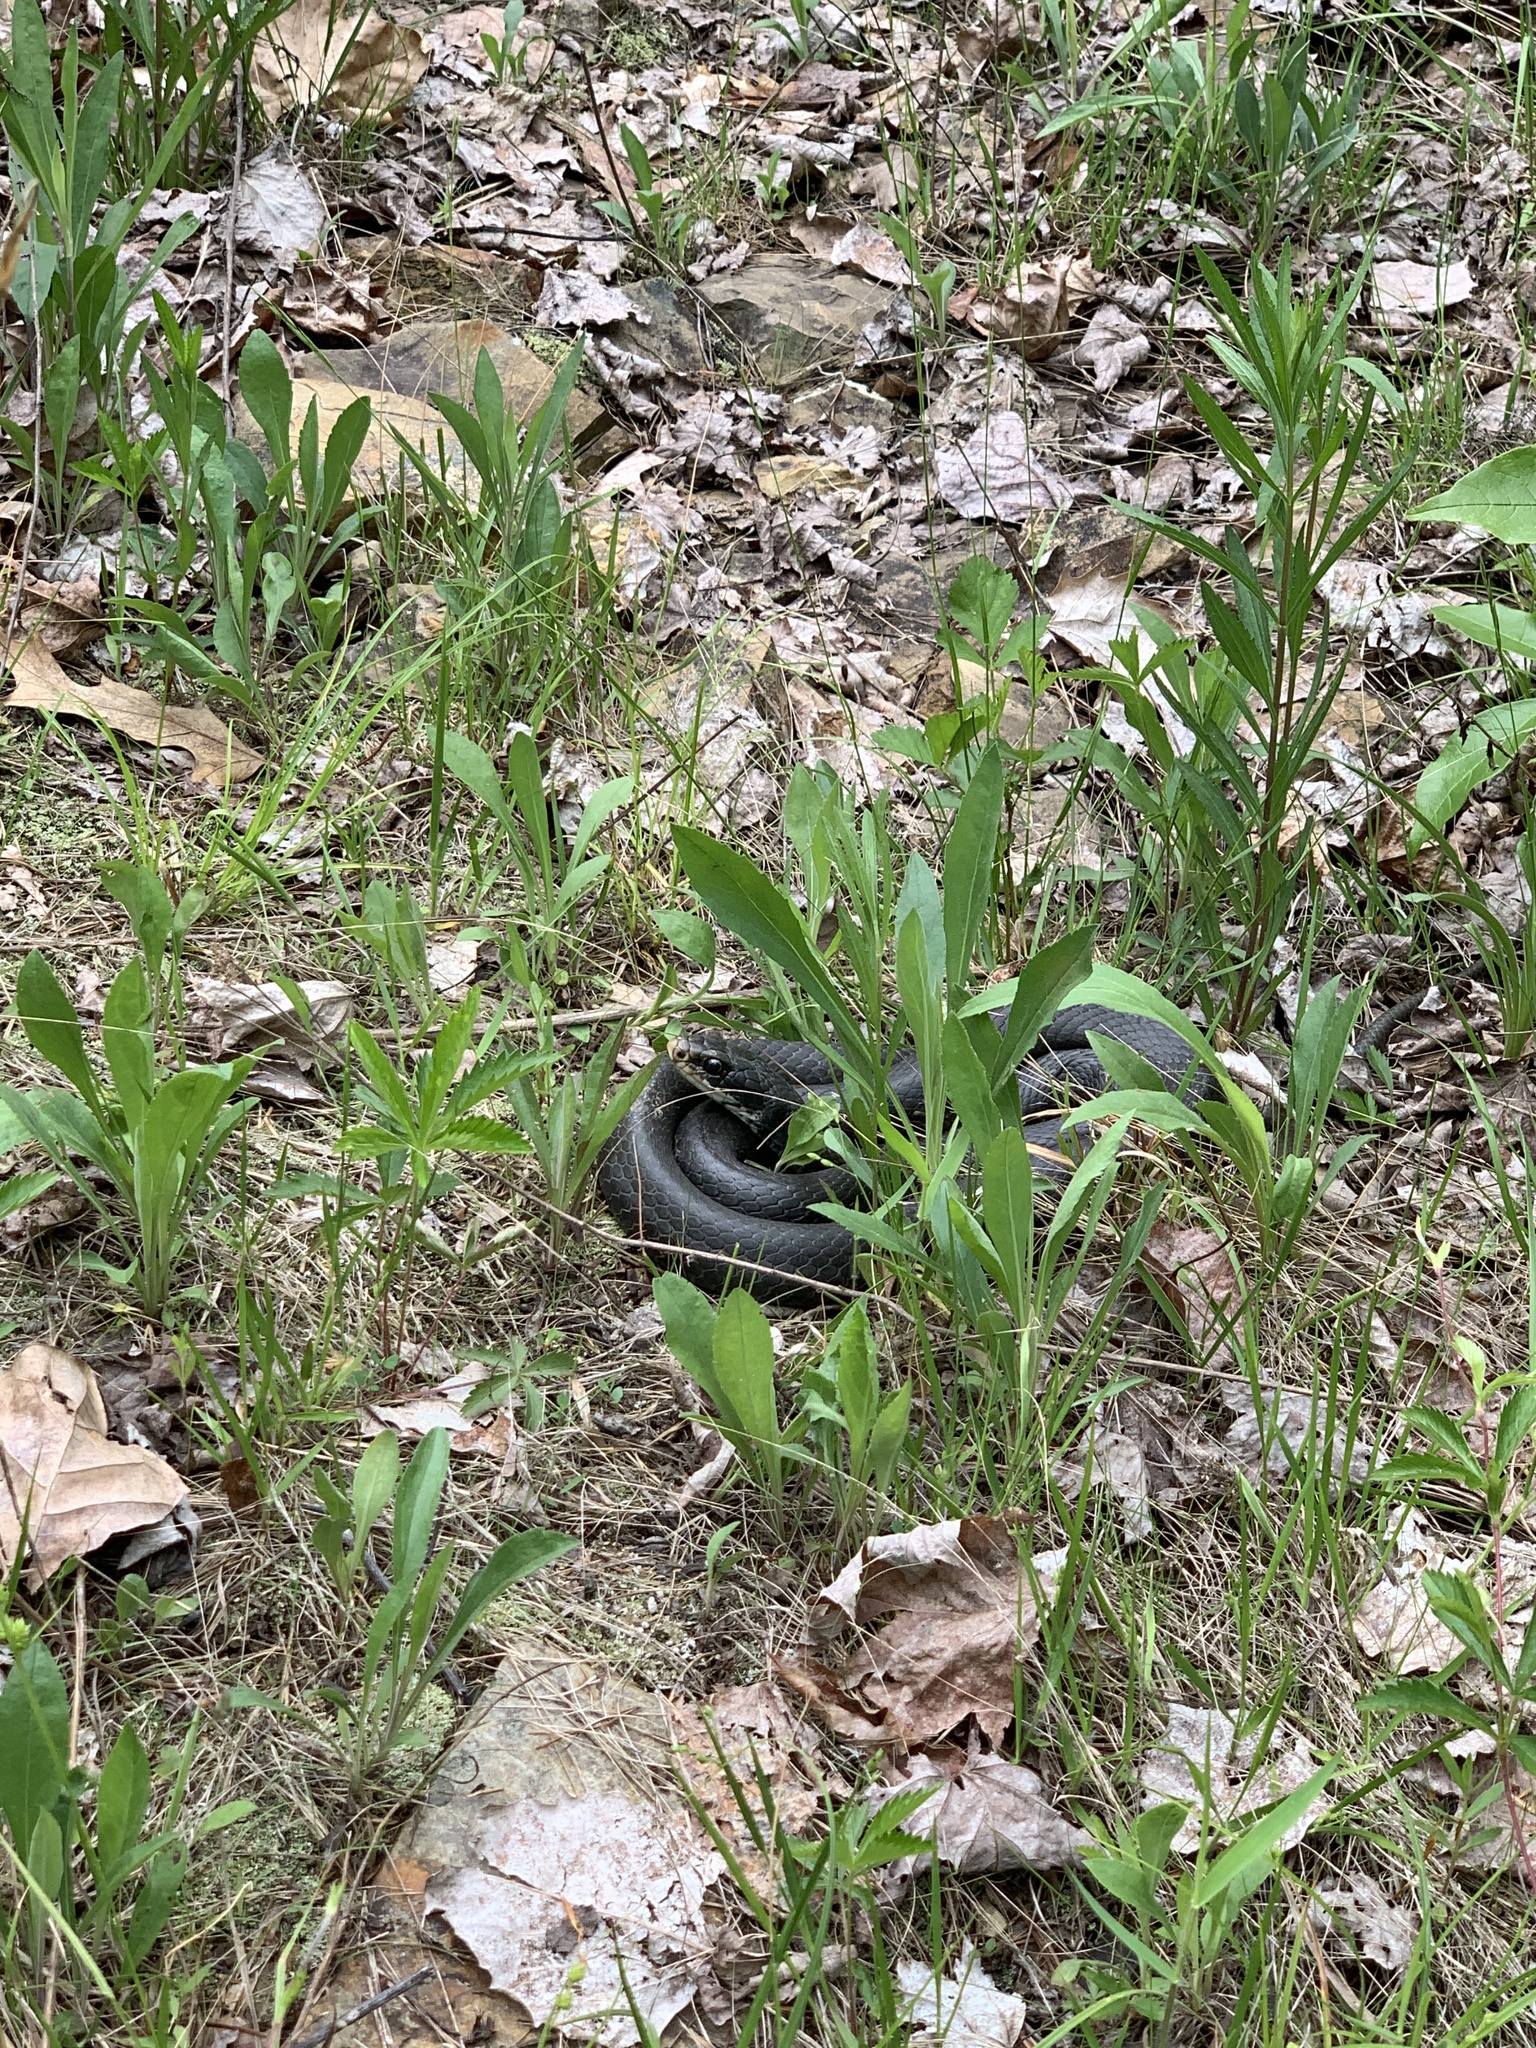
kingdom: Animalia
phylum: Chordata
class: Squamata
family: Colubridae
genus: Coluber
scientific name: Coluber constrictor
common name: Eastern racer
